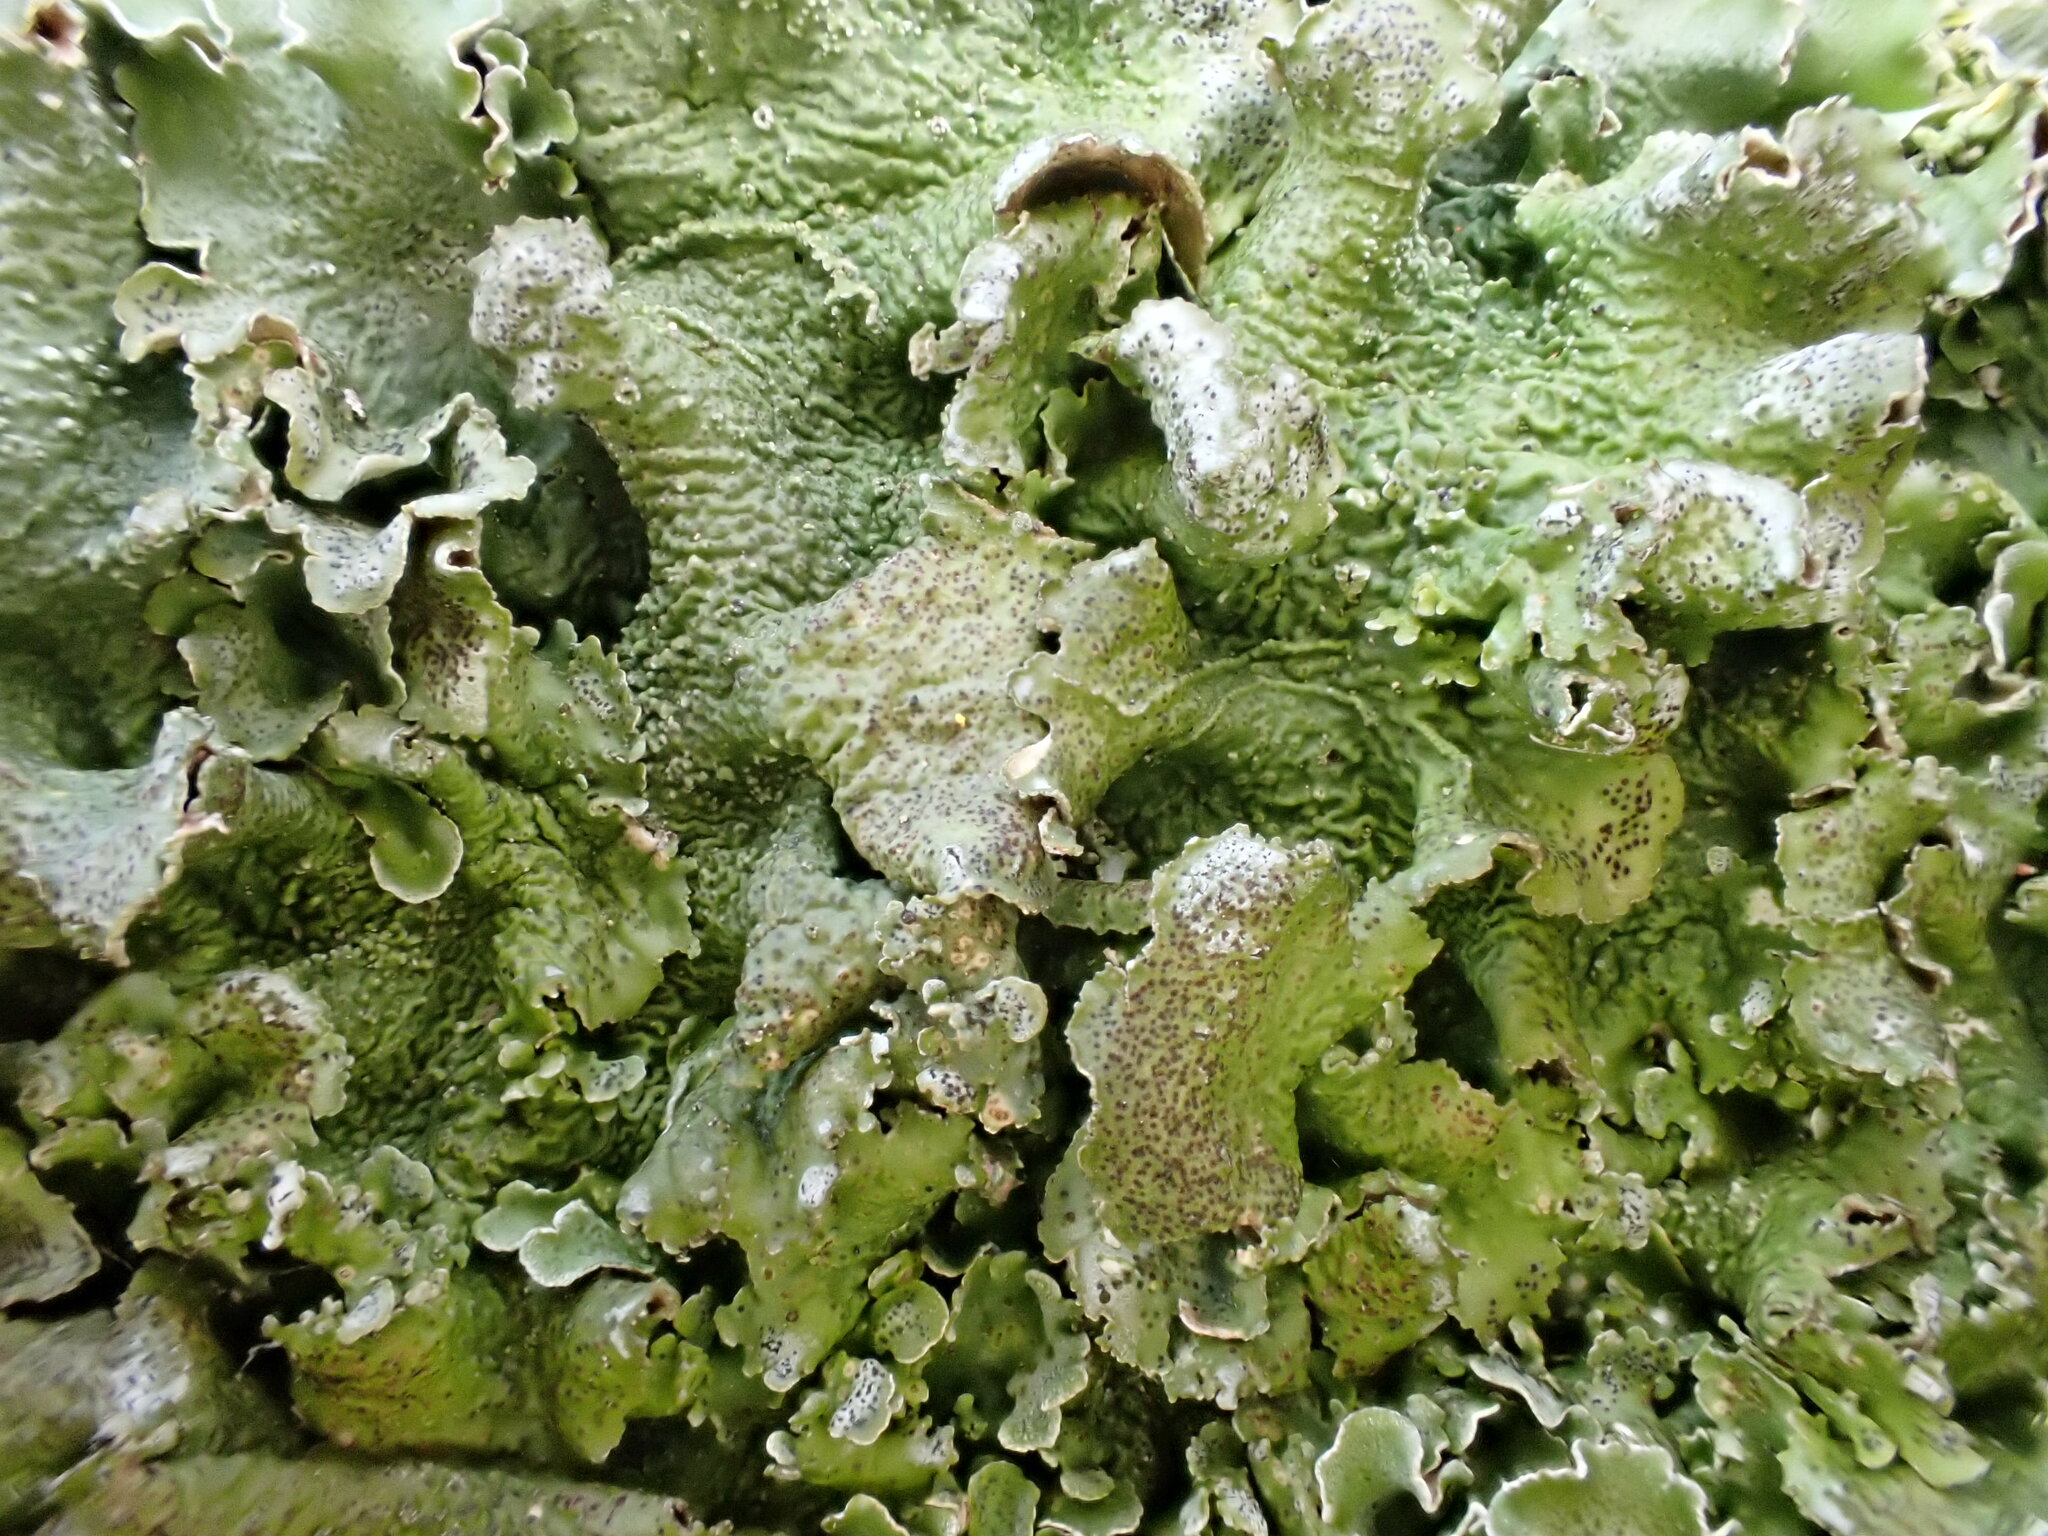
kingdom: Fungi
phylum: Ascomycota
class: Lecanoromycetes
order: Lecanorales
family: Parmeliaceae
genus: Pleurosticta
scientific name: Pleurosticta acetabulum
